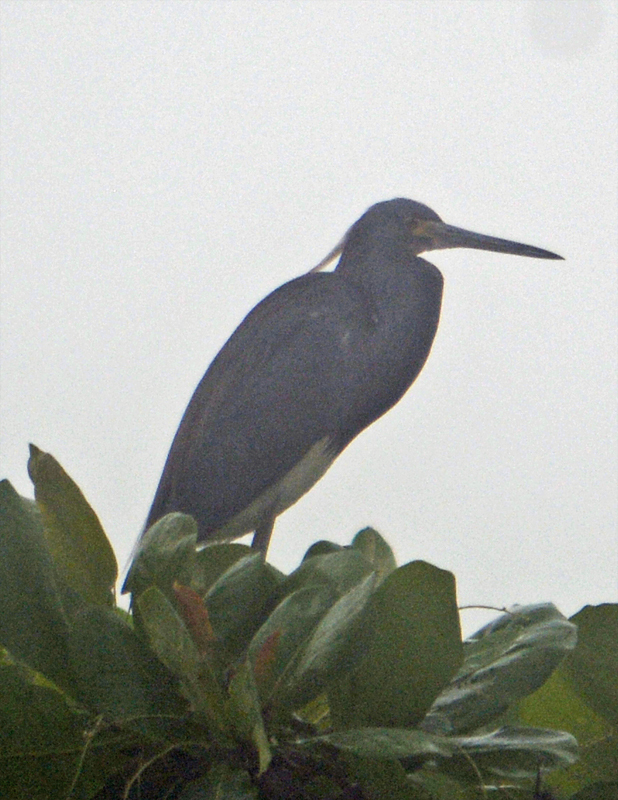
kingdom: Animalia
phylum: Chordata
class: Aves
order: Pelecaniformes
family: Ardeidae
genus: Egretta
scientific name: Egretta tricolor
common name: Tricolored heron
